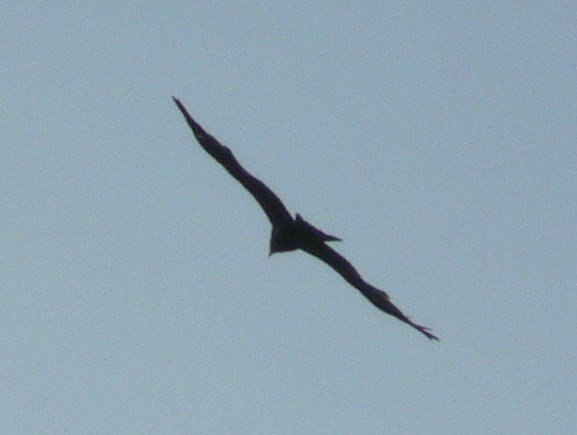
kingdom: Animalia
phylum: Chordata
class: Aves
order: Accipitriformes
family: Accipitridae
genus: Milvus
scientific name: Milvus migrans
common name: Black kite
